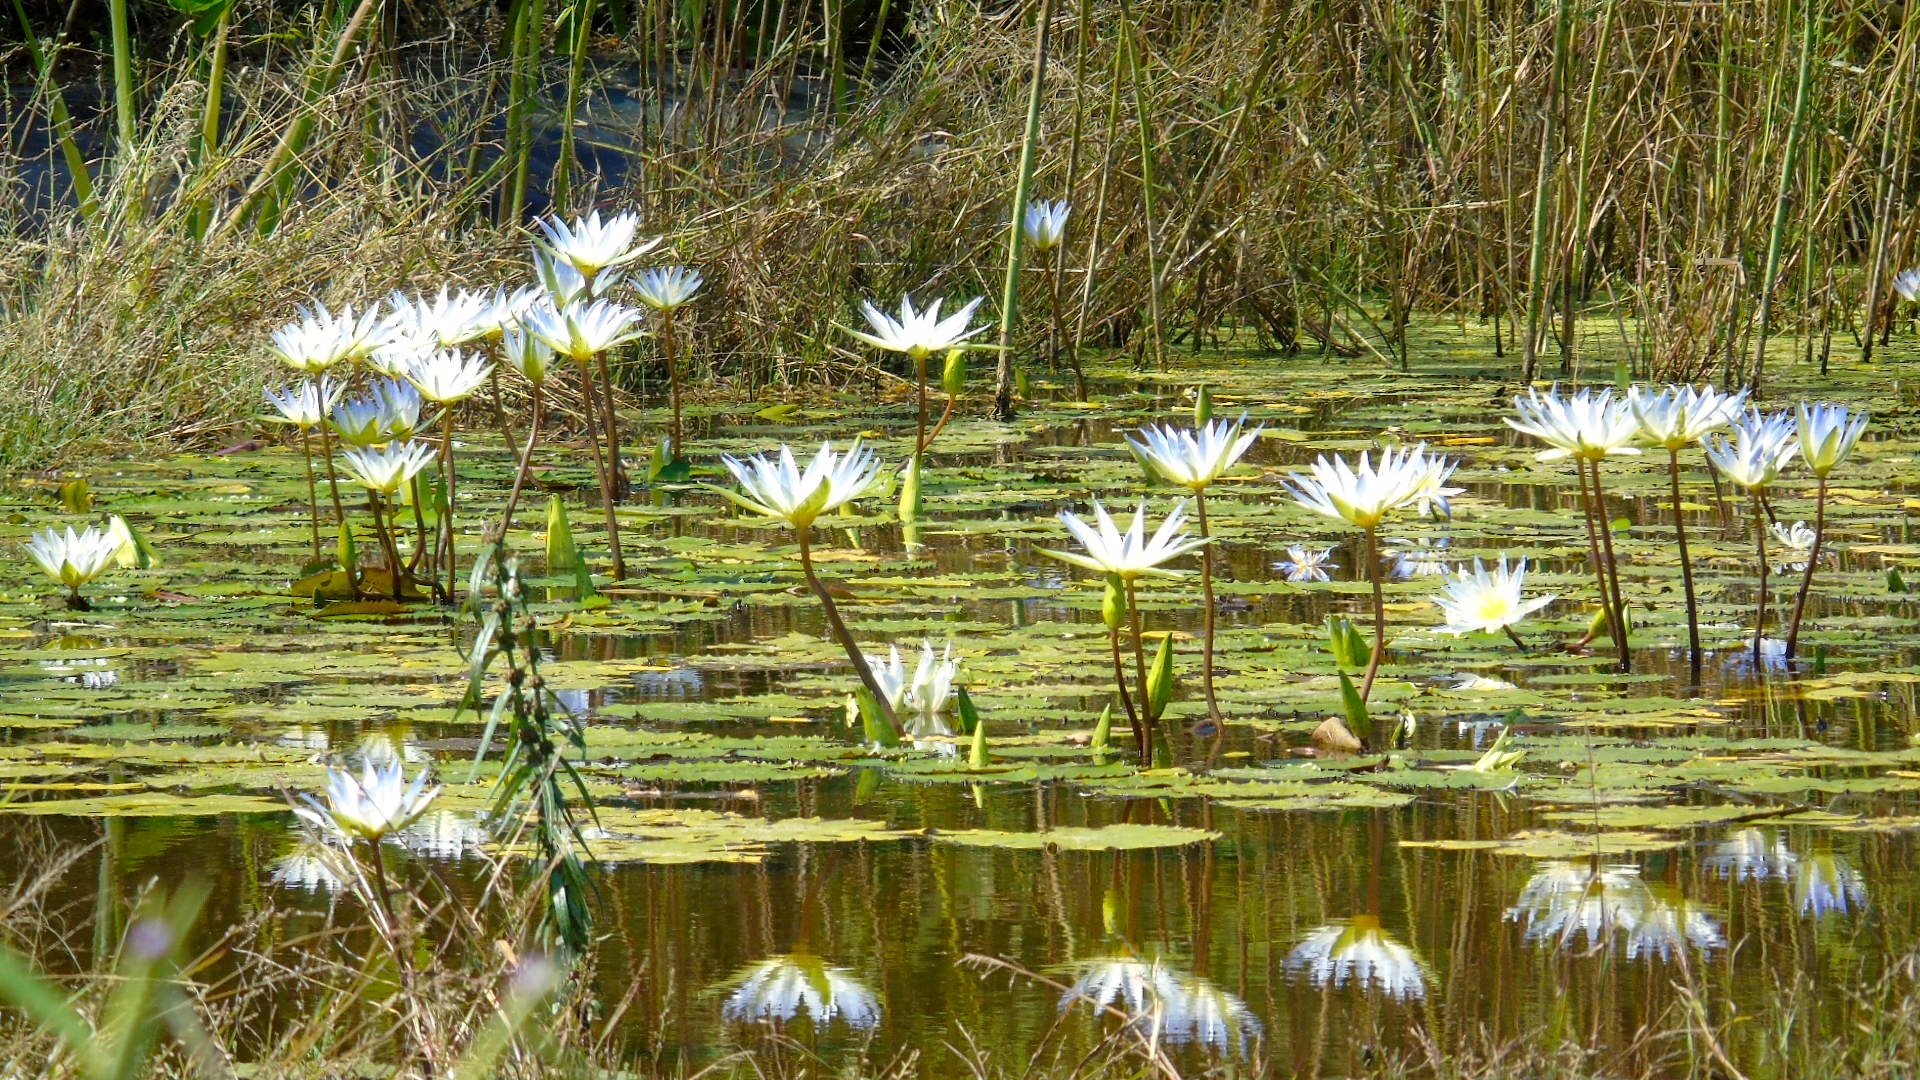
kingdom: Plantae
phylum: Tracheophyta
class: Magnoliopsida
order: Nymphaeales
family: Nymphaeaceae
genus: Nymphaea
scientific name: Nymphaea elegans
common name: Blue water-lily
